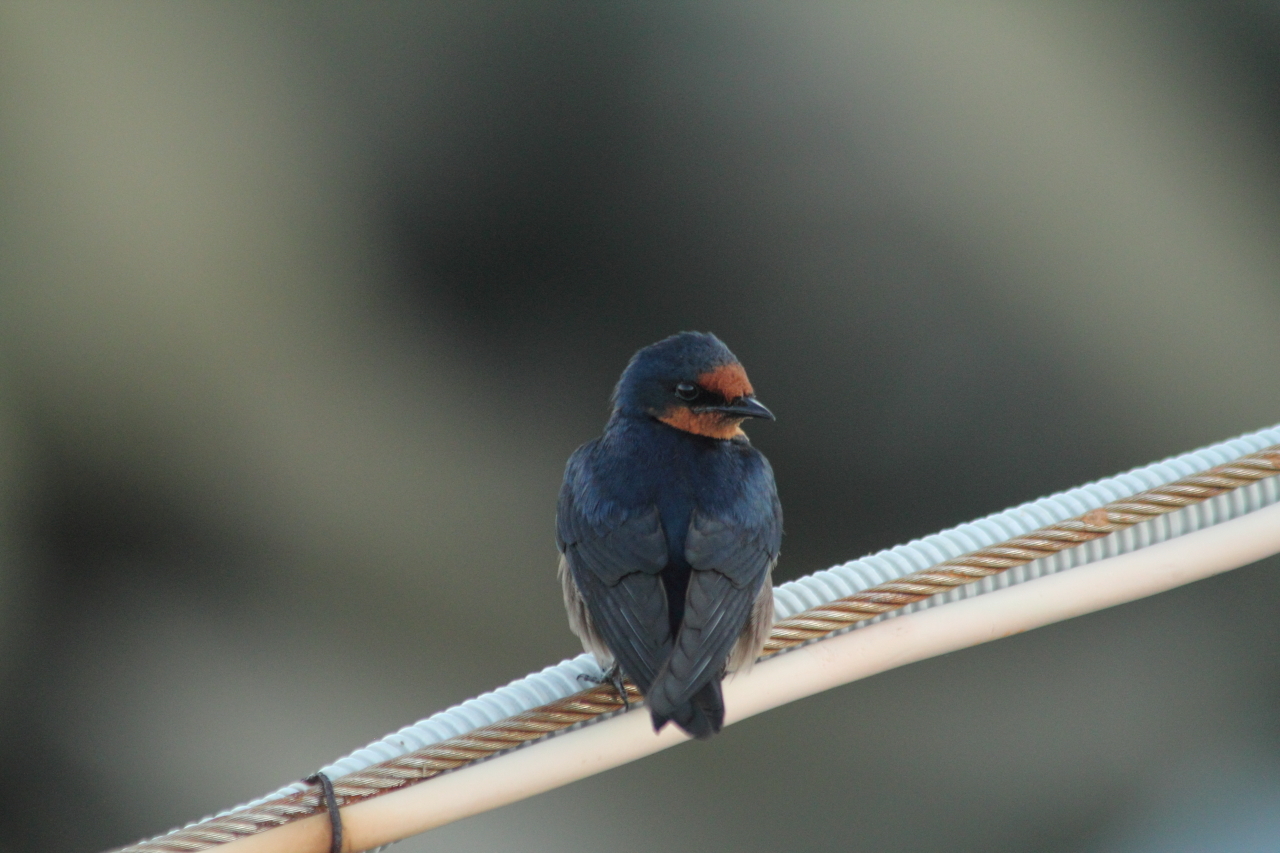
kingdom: Animalia
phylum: Chordata
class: Aves
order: Passeriformes
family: Hirundinidae
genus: Hirundo
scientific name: Hirundo tahitica
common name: Pacific swallow
